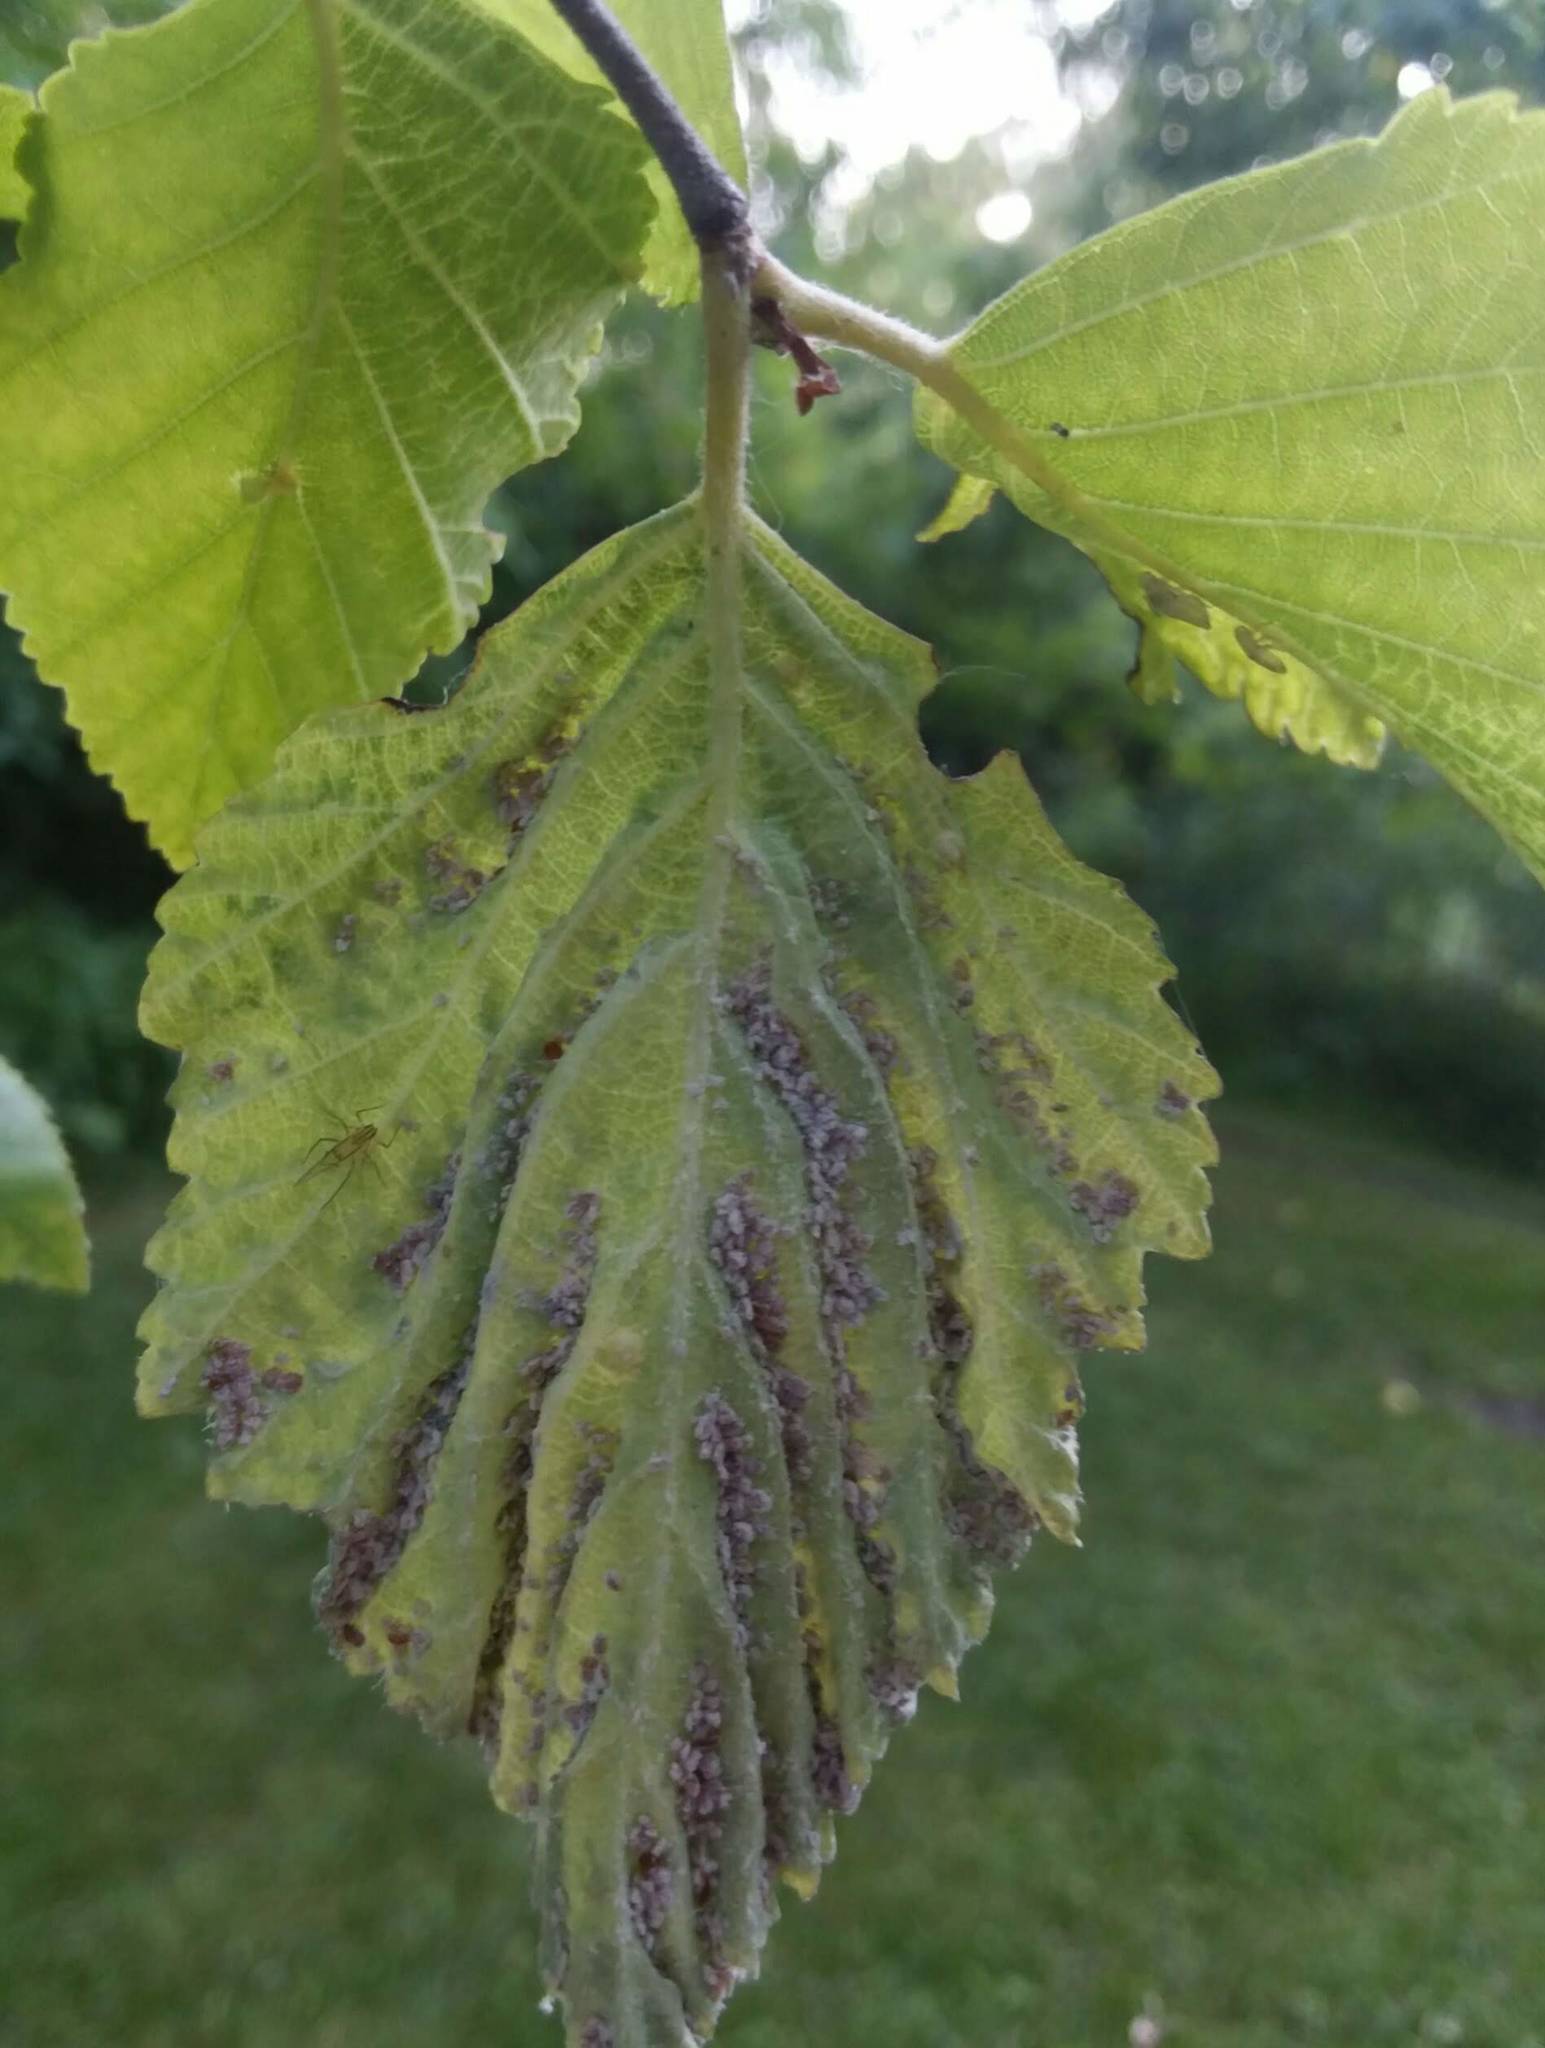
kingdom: Animalia
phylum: Arthropoda
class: Insecta
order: Hemiptera
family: Aphididae
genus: Hamamelistes
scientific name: Hamamelistes spinosus
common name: Witch hazel gall aphid
